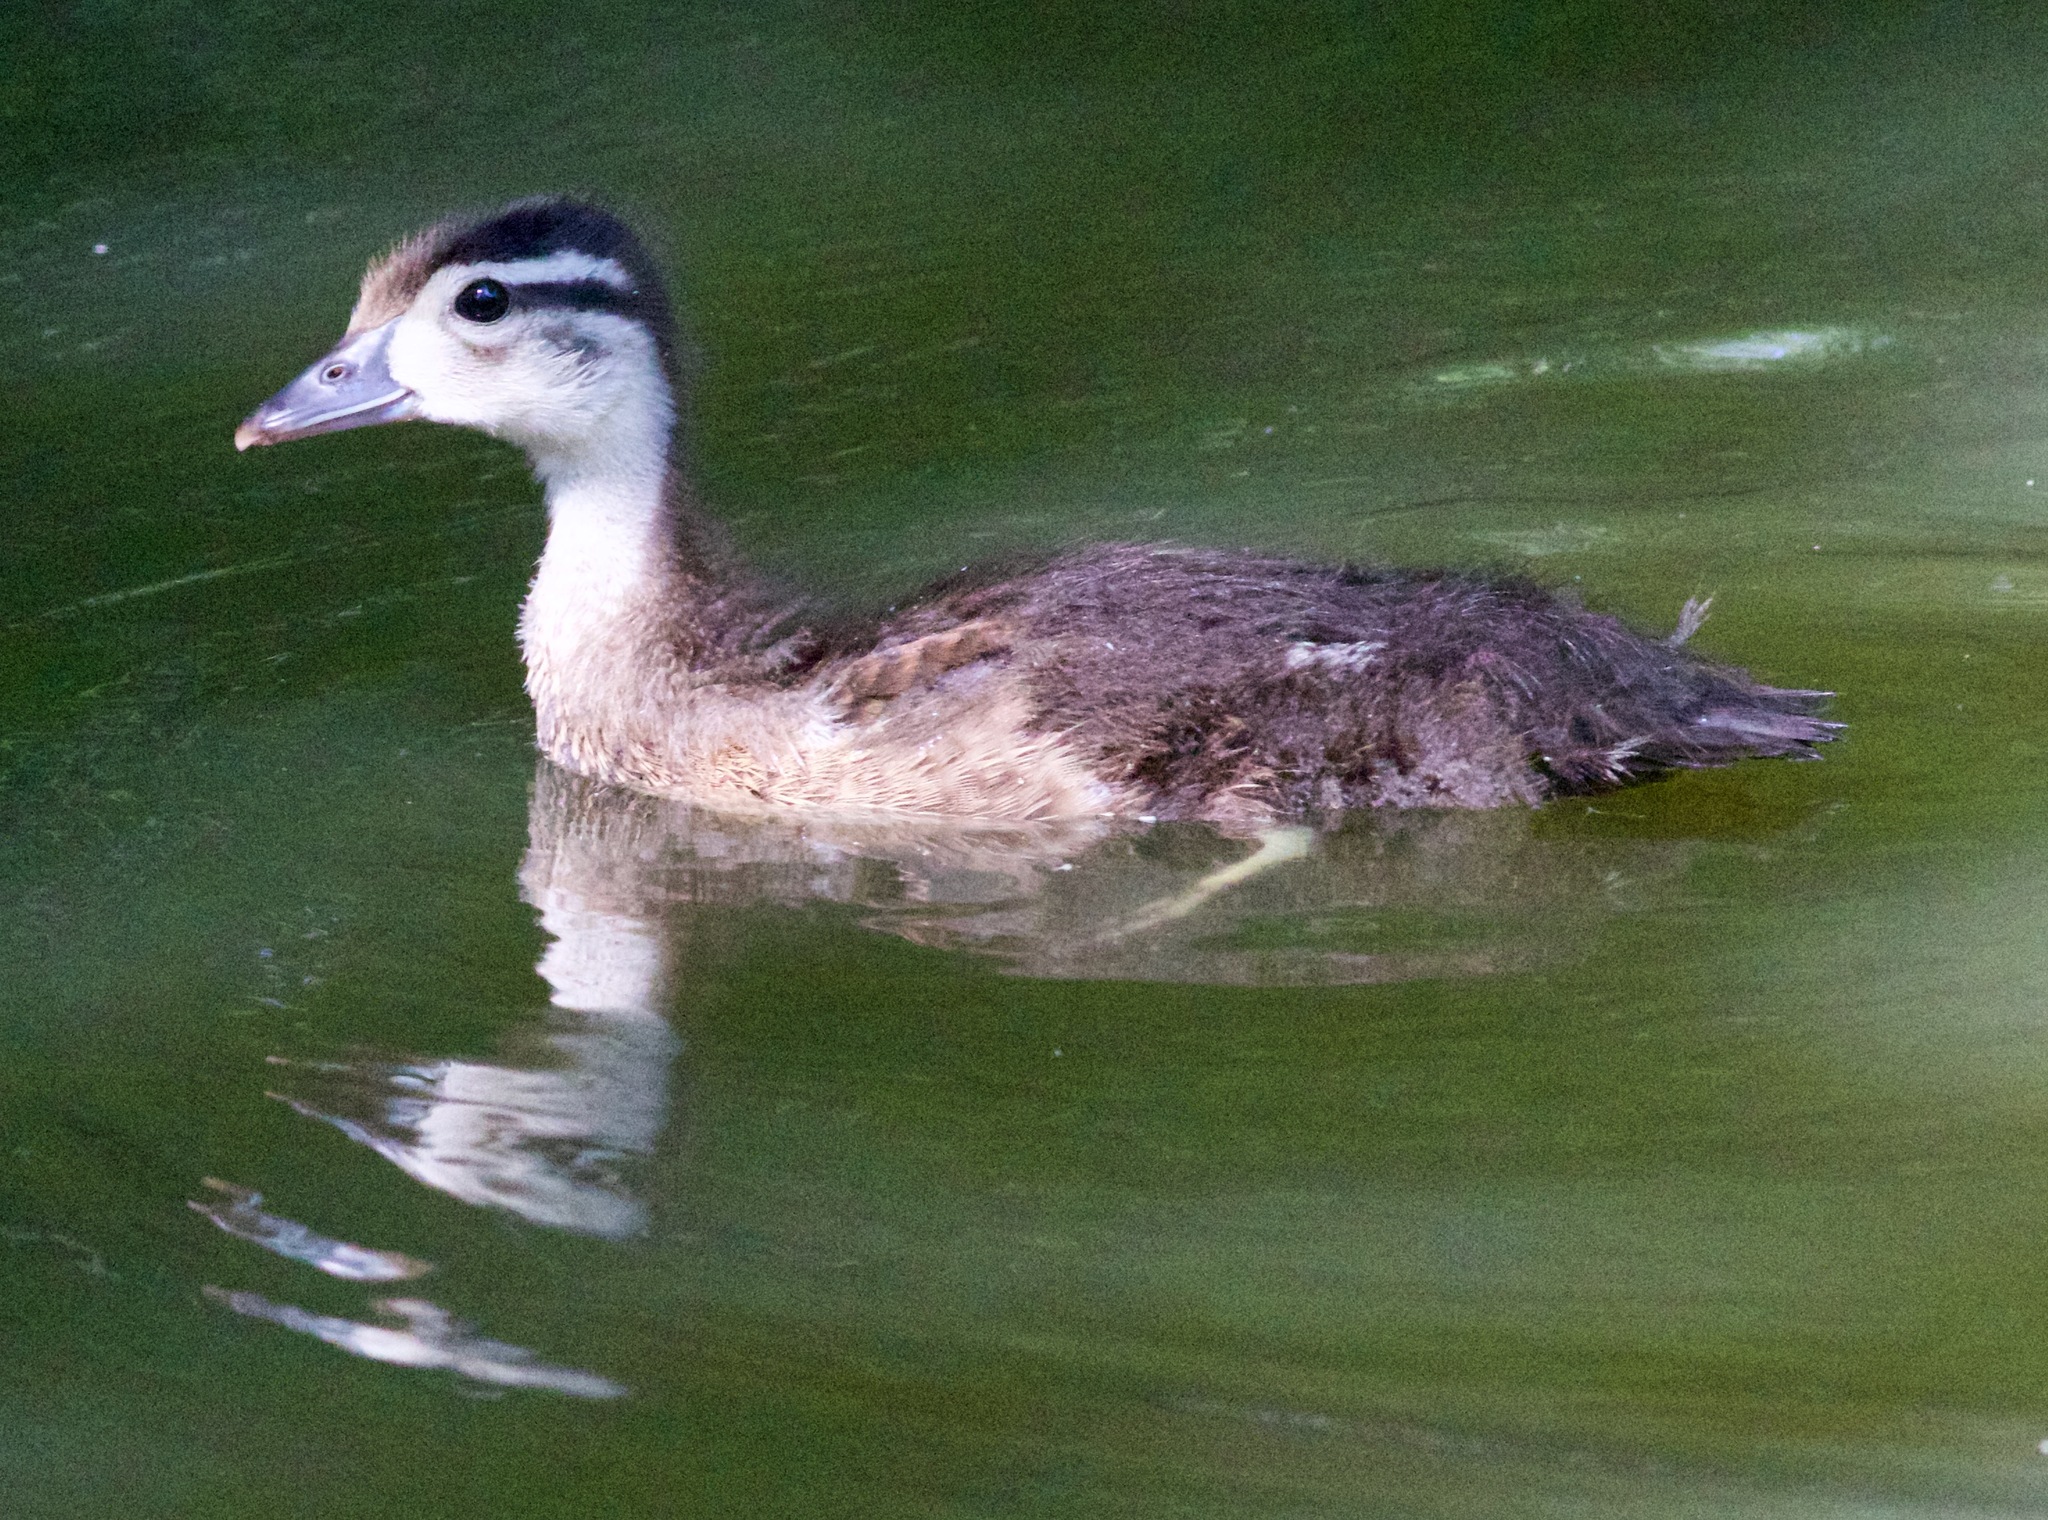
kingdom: Animalia
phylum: Chordata
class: Aves
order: Anseriformes
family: Anatidae
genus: Aix
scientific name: Aix sponsa
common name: Wood duck
